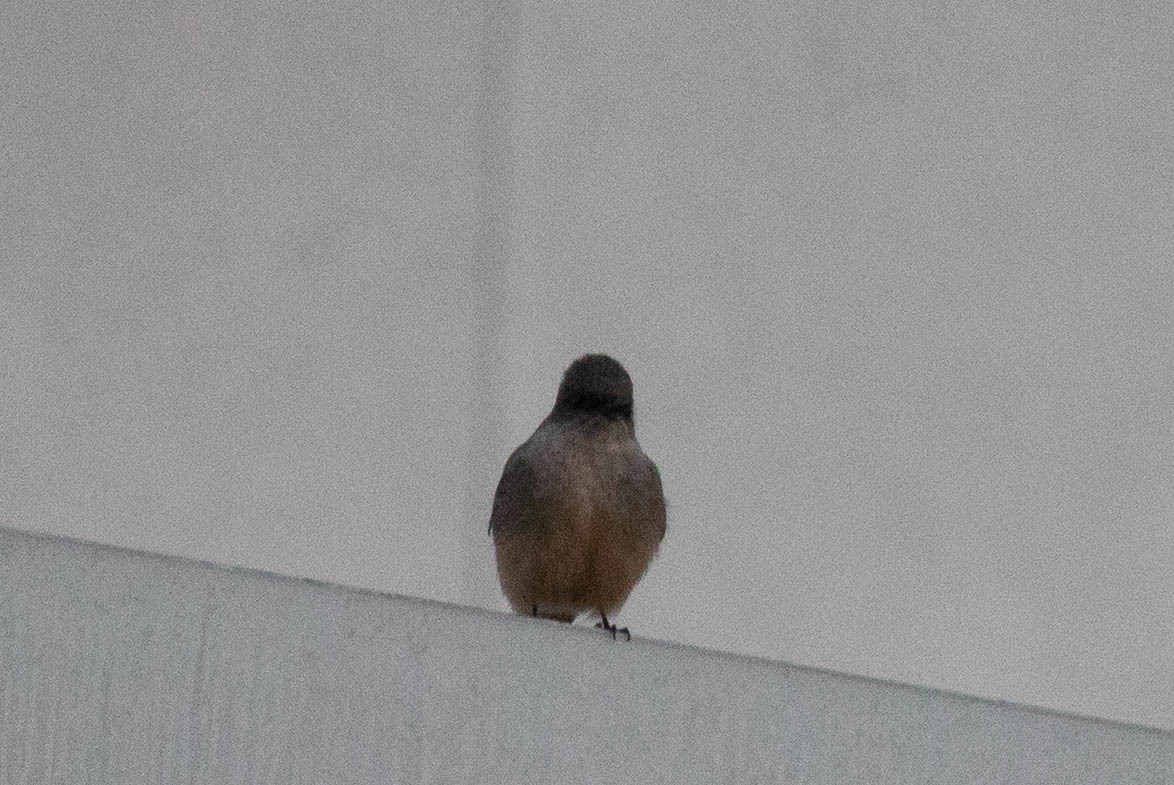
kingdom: Animalia
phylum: Chordata
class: Aves
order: Passeriformes
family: Tyrannidae
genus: Sayornis
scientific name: Sayornis saya
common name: Say's phoebe
